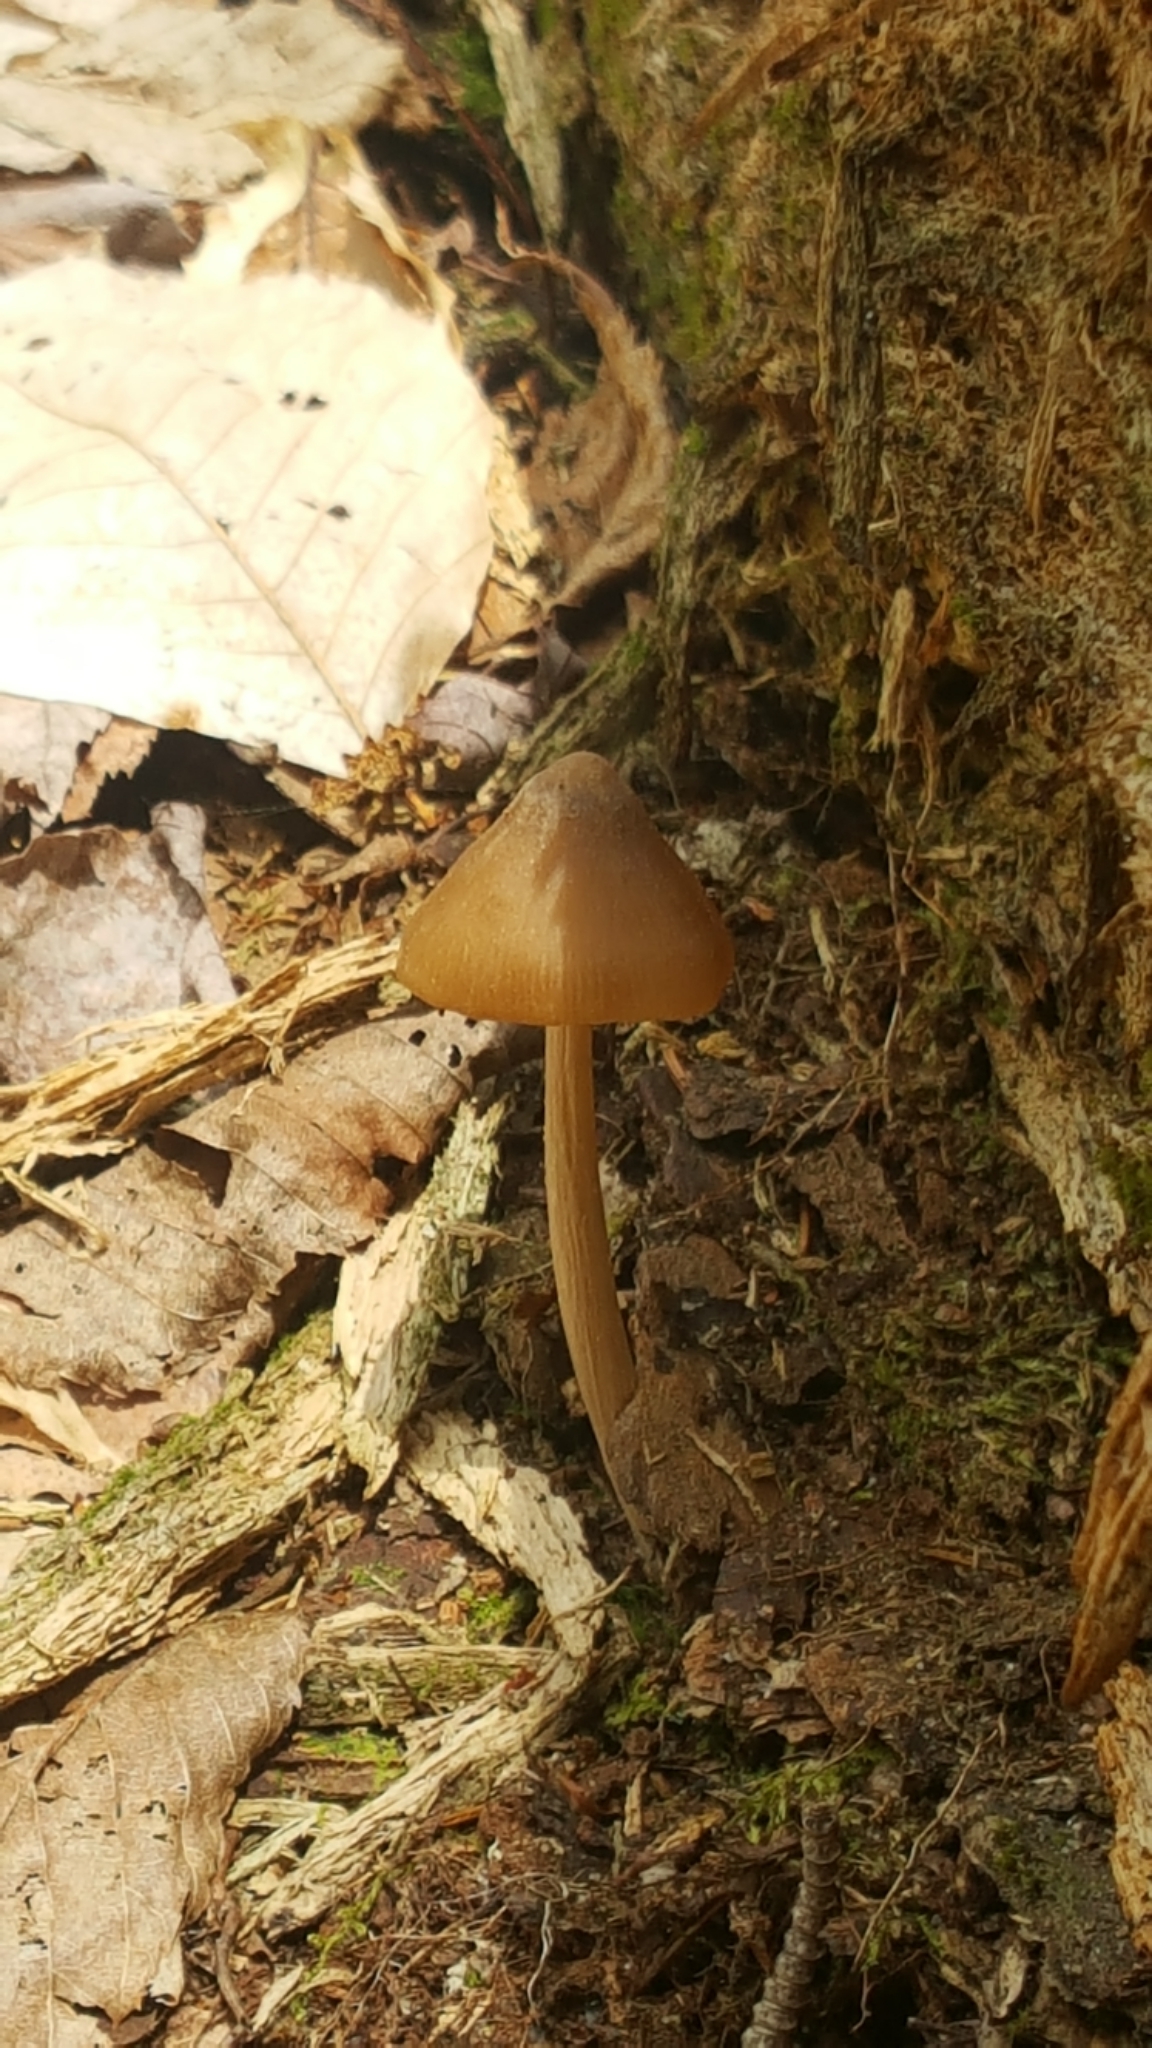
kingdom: Fungi
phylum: Basidiomycota
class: Agaricomycetes
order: Agaricales
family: Entolomataceae
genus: Entoloma
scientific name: Entoloma strictius
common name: Straight-stalked entoloma
